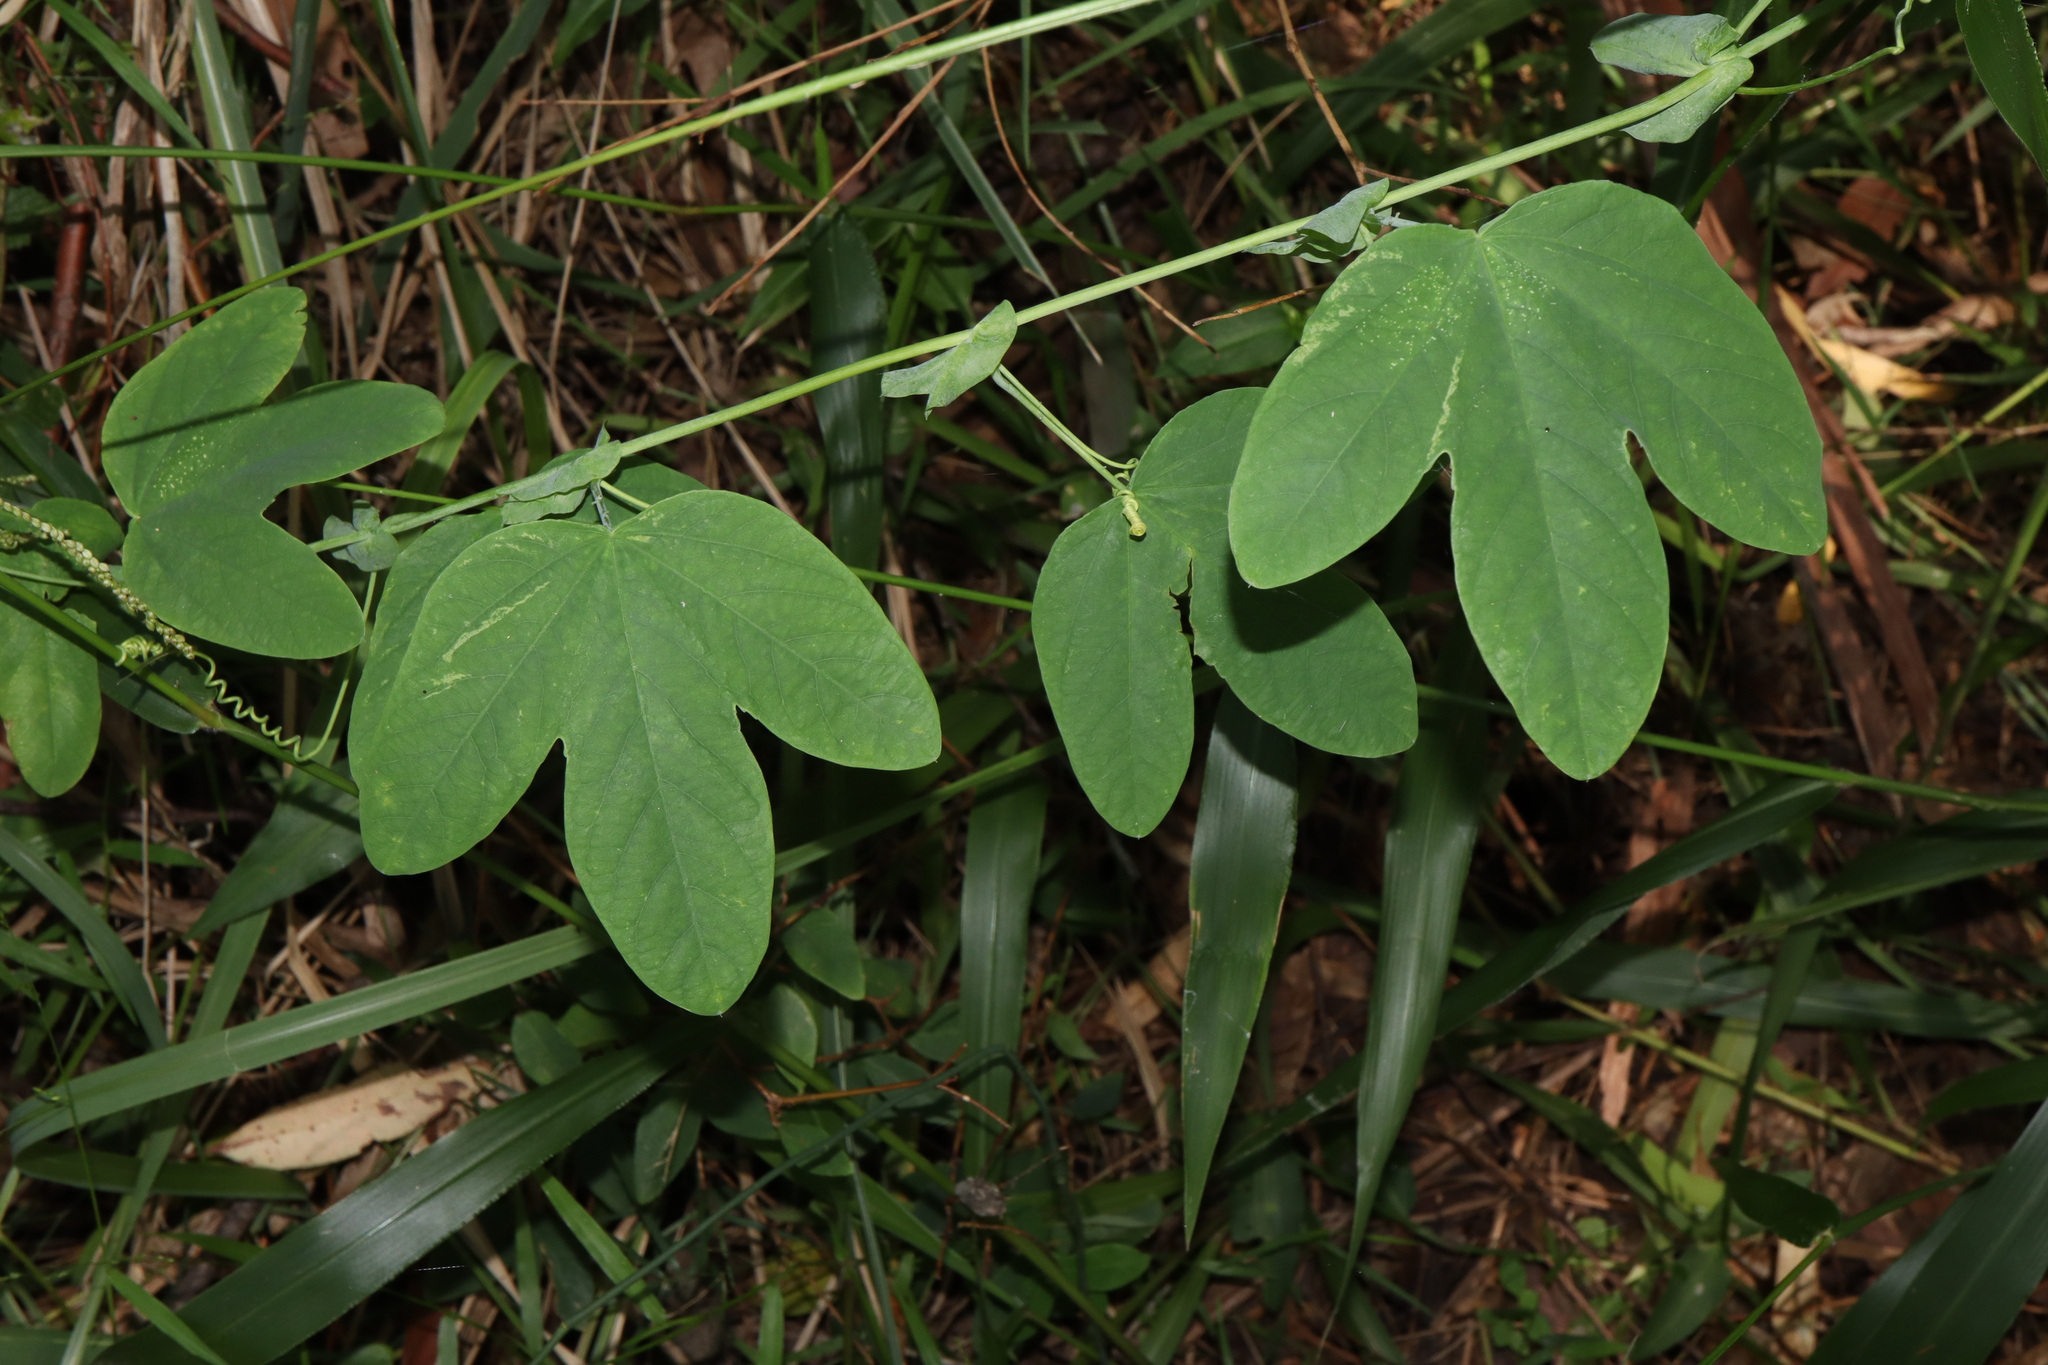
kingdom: Plantae
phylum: Tracheophyta
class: Magnoliopsida
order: Malpighiales
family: Passifloraceae
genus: Passiflora
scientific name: Passiflora subpeltata
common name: White passionflower
